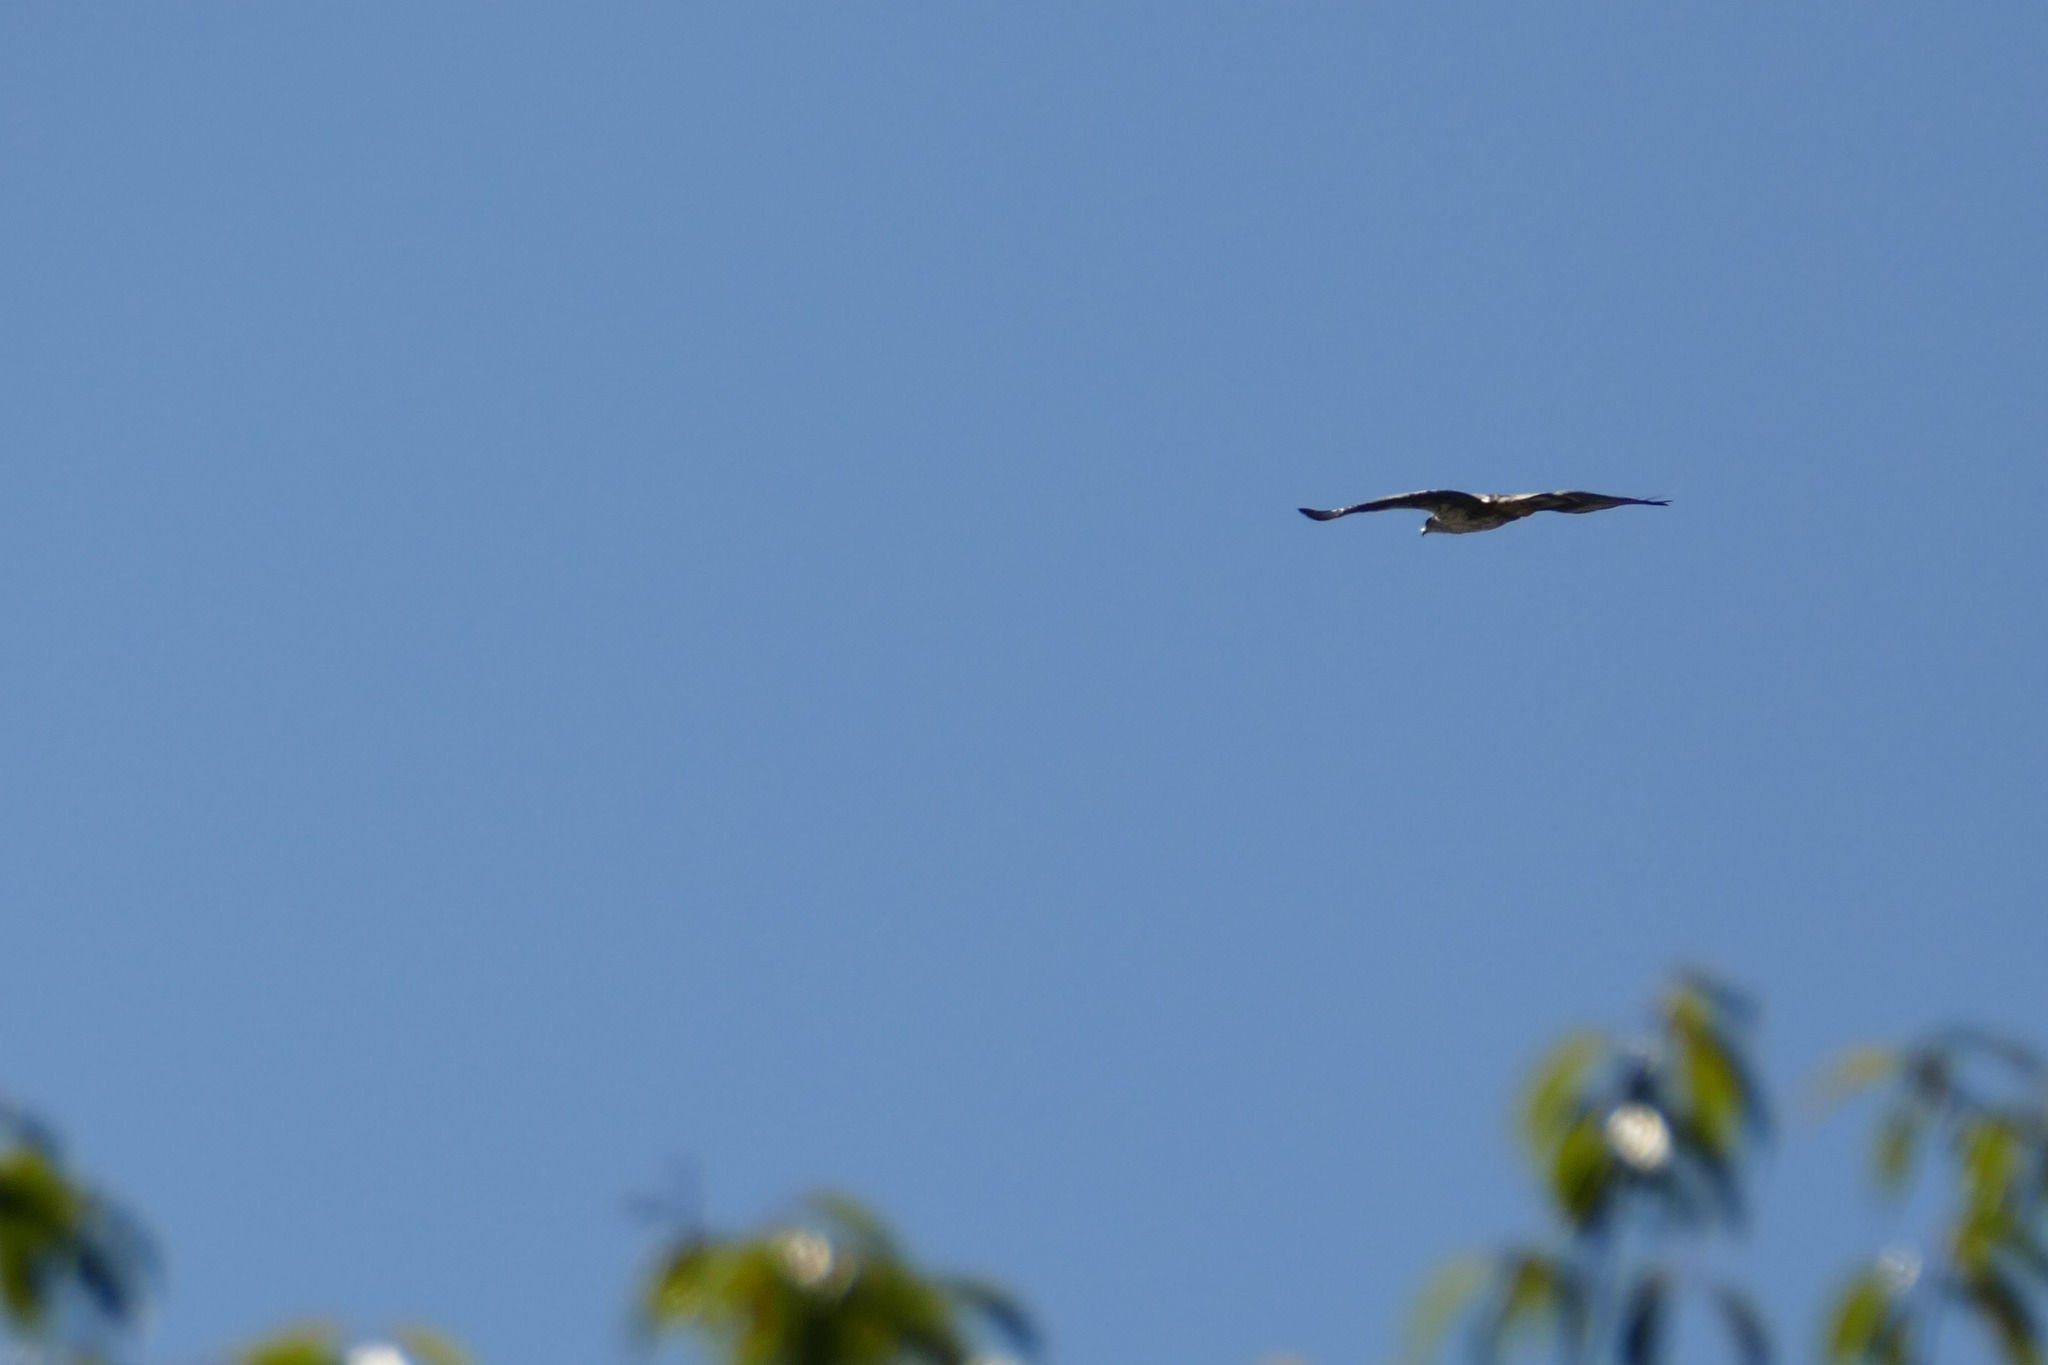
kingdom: Animalia
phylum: Chordata
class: Aves
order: Accipitriformes
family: Accipitridae
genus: Aquila
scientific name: Aquila fasciata
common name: Bonelli's eagle
